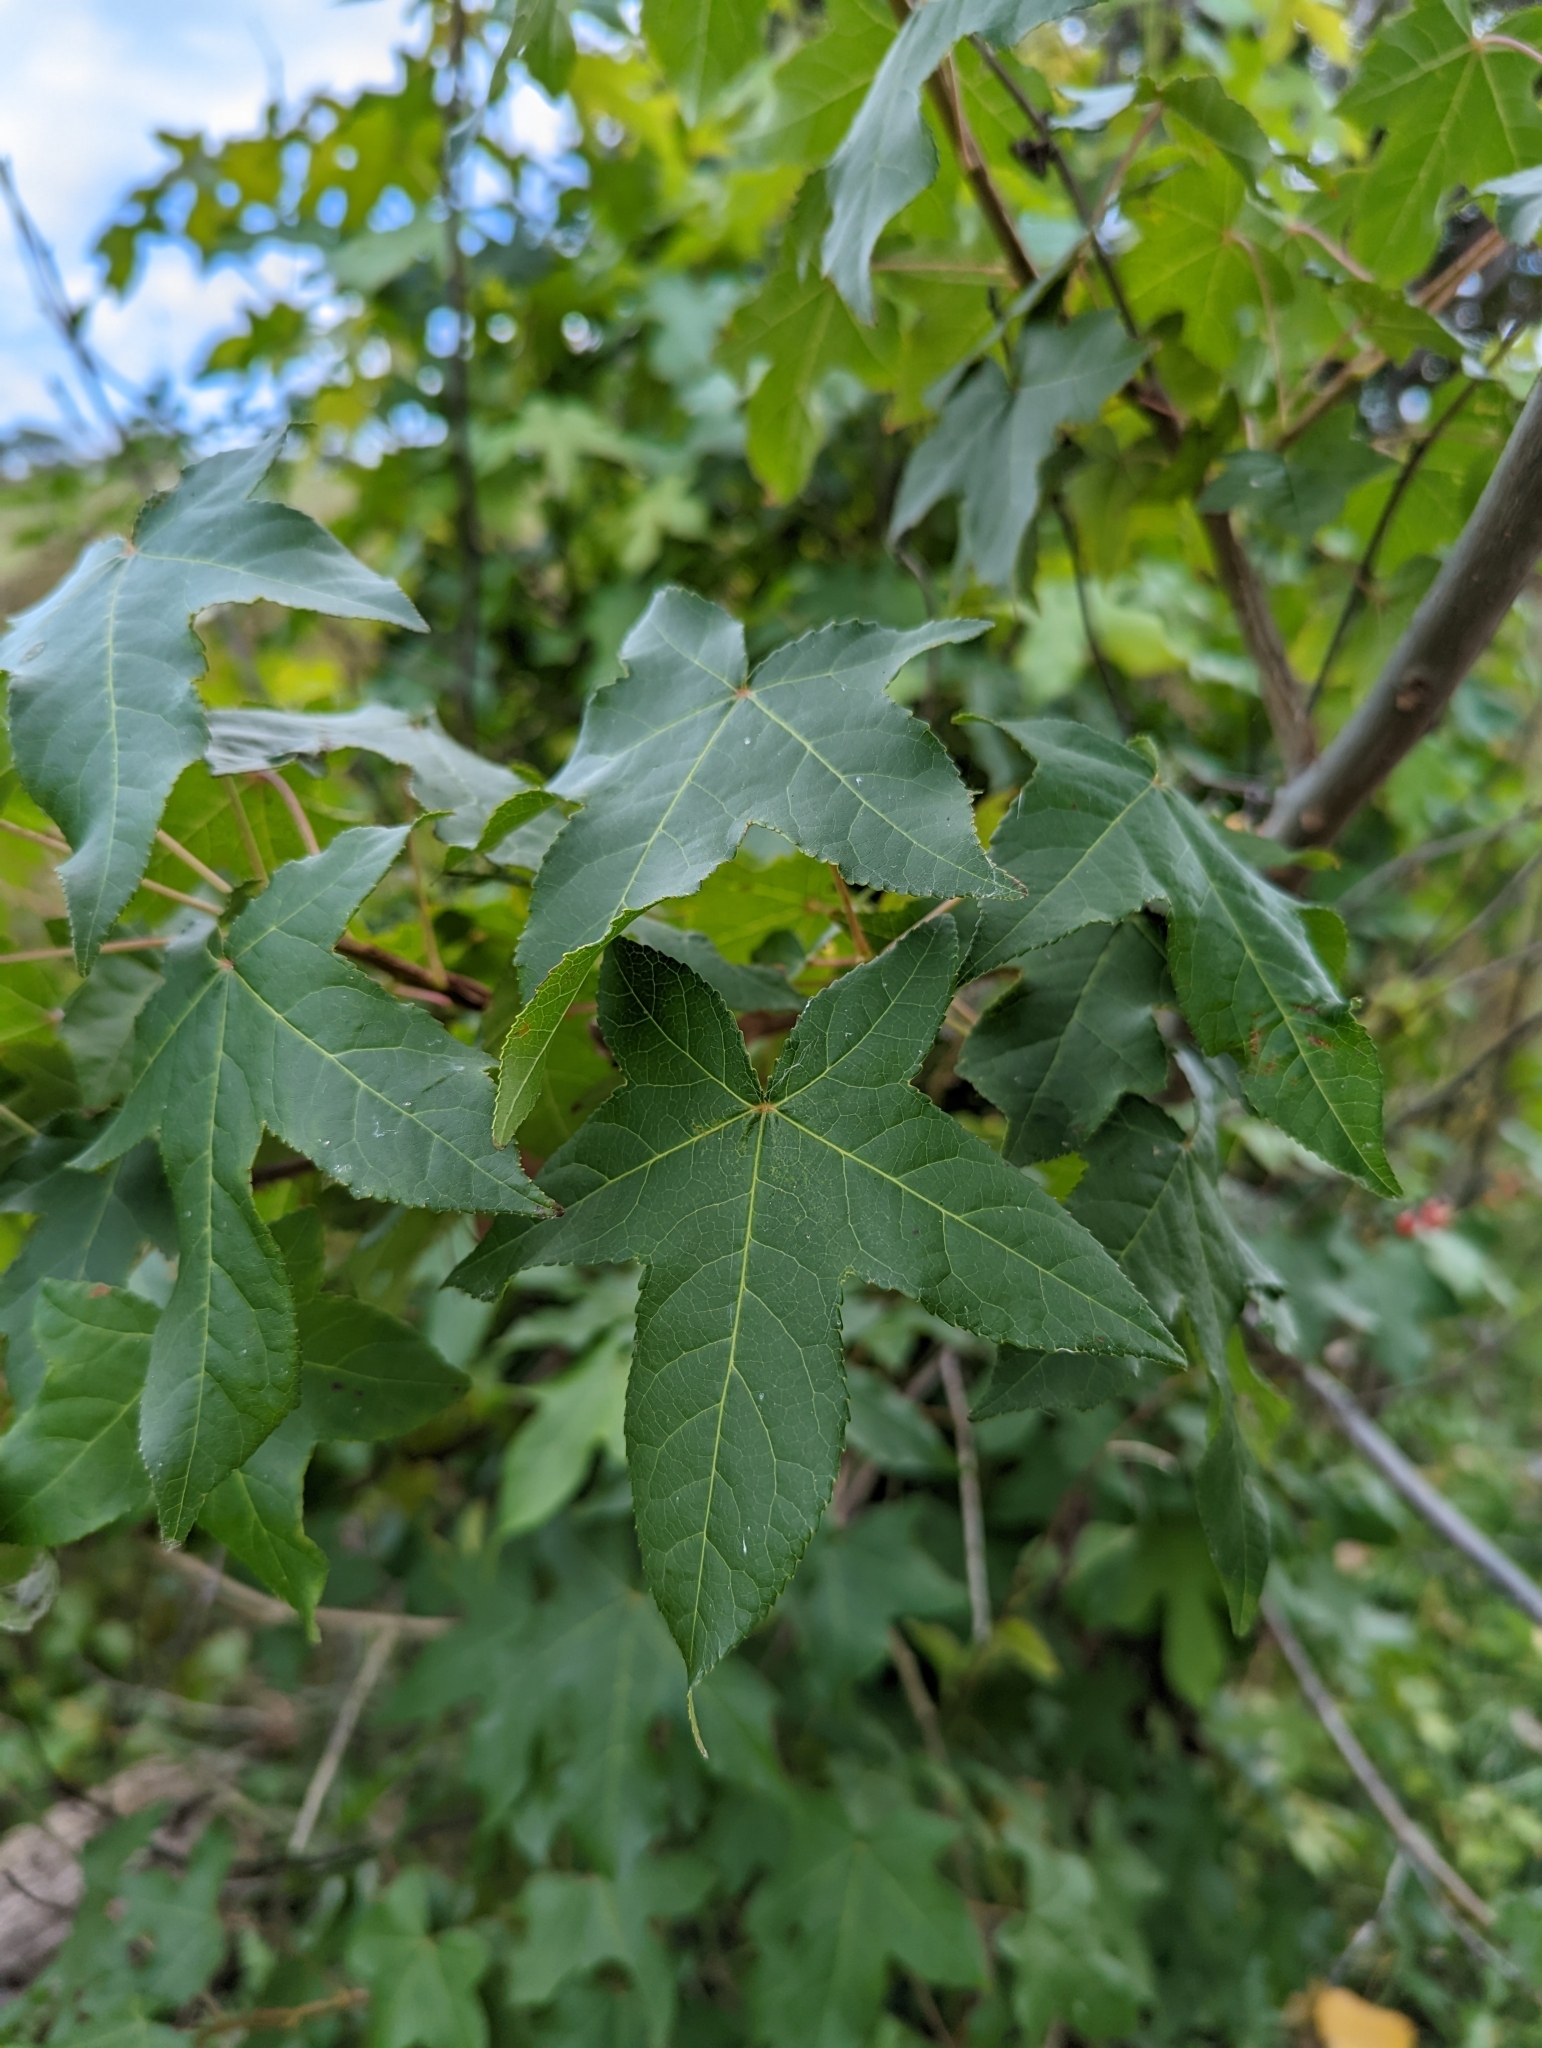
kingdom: Plantae
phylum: Tracheophyta
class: Magnoliopsida
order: Saxifragales
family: Altingiaceae
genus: Liquidambar
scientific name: Liquidambar styraciflua
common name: Sweet gum
